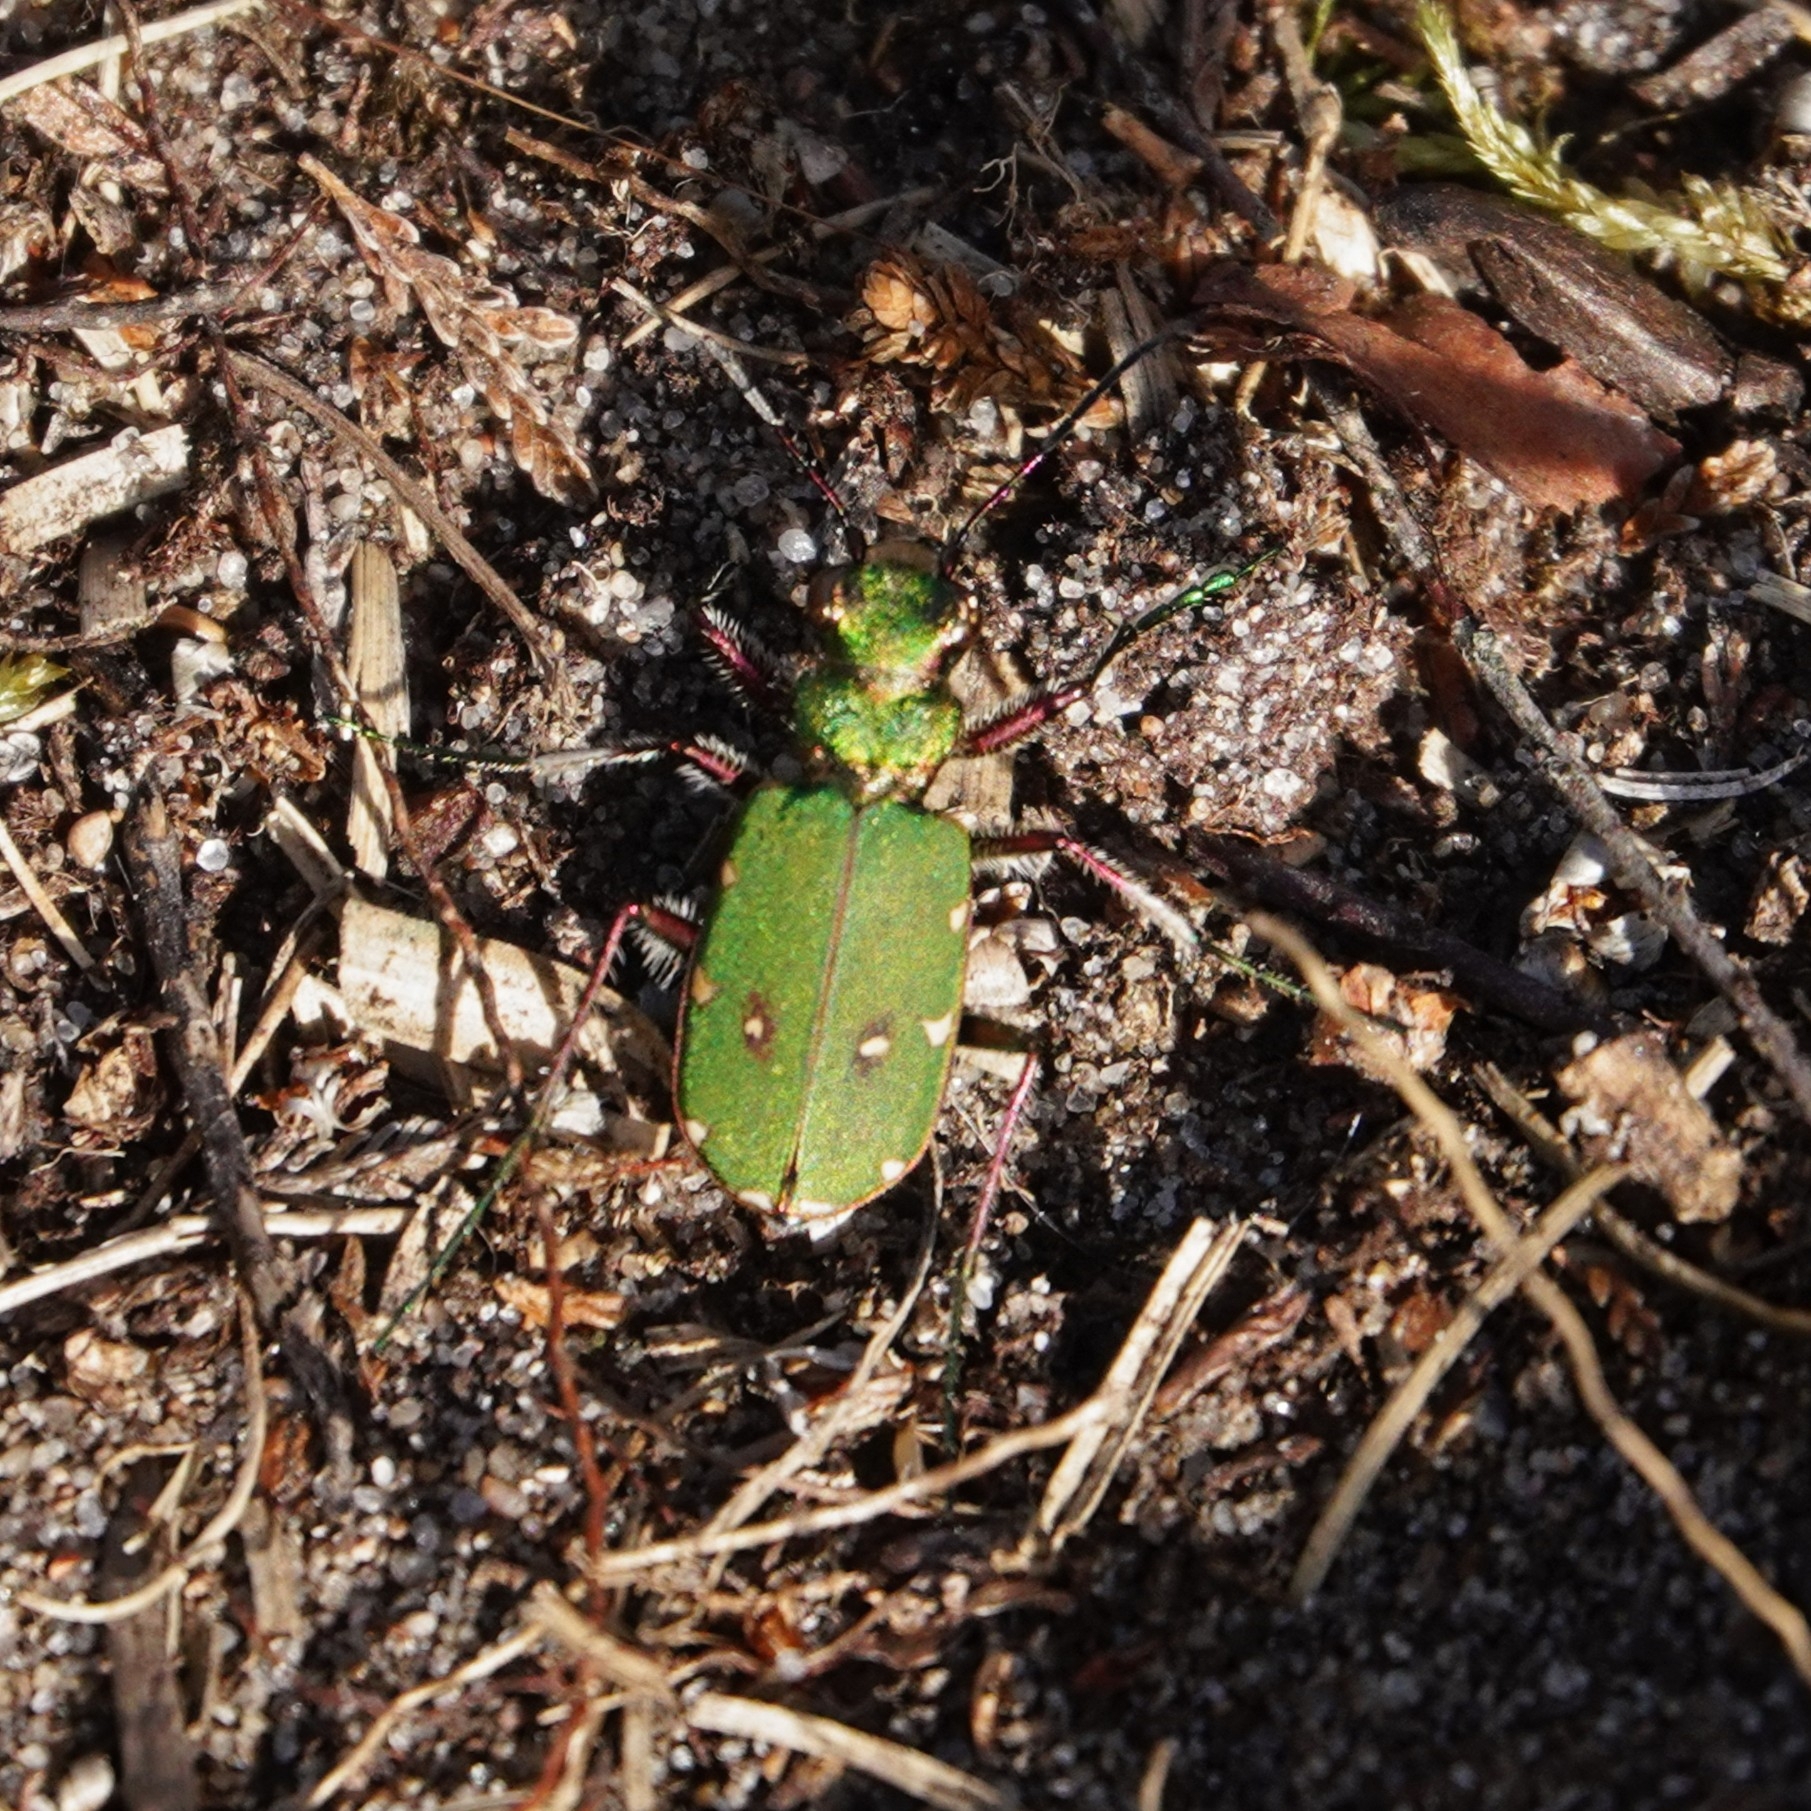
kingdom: Animalia
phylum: Arthropoda
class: Insecta
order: Coleoptera
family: Carabidae
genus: Cicindela
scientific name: Cicindela campestris
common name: Common tiger beetle
